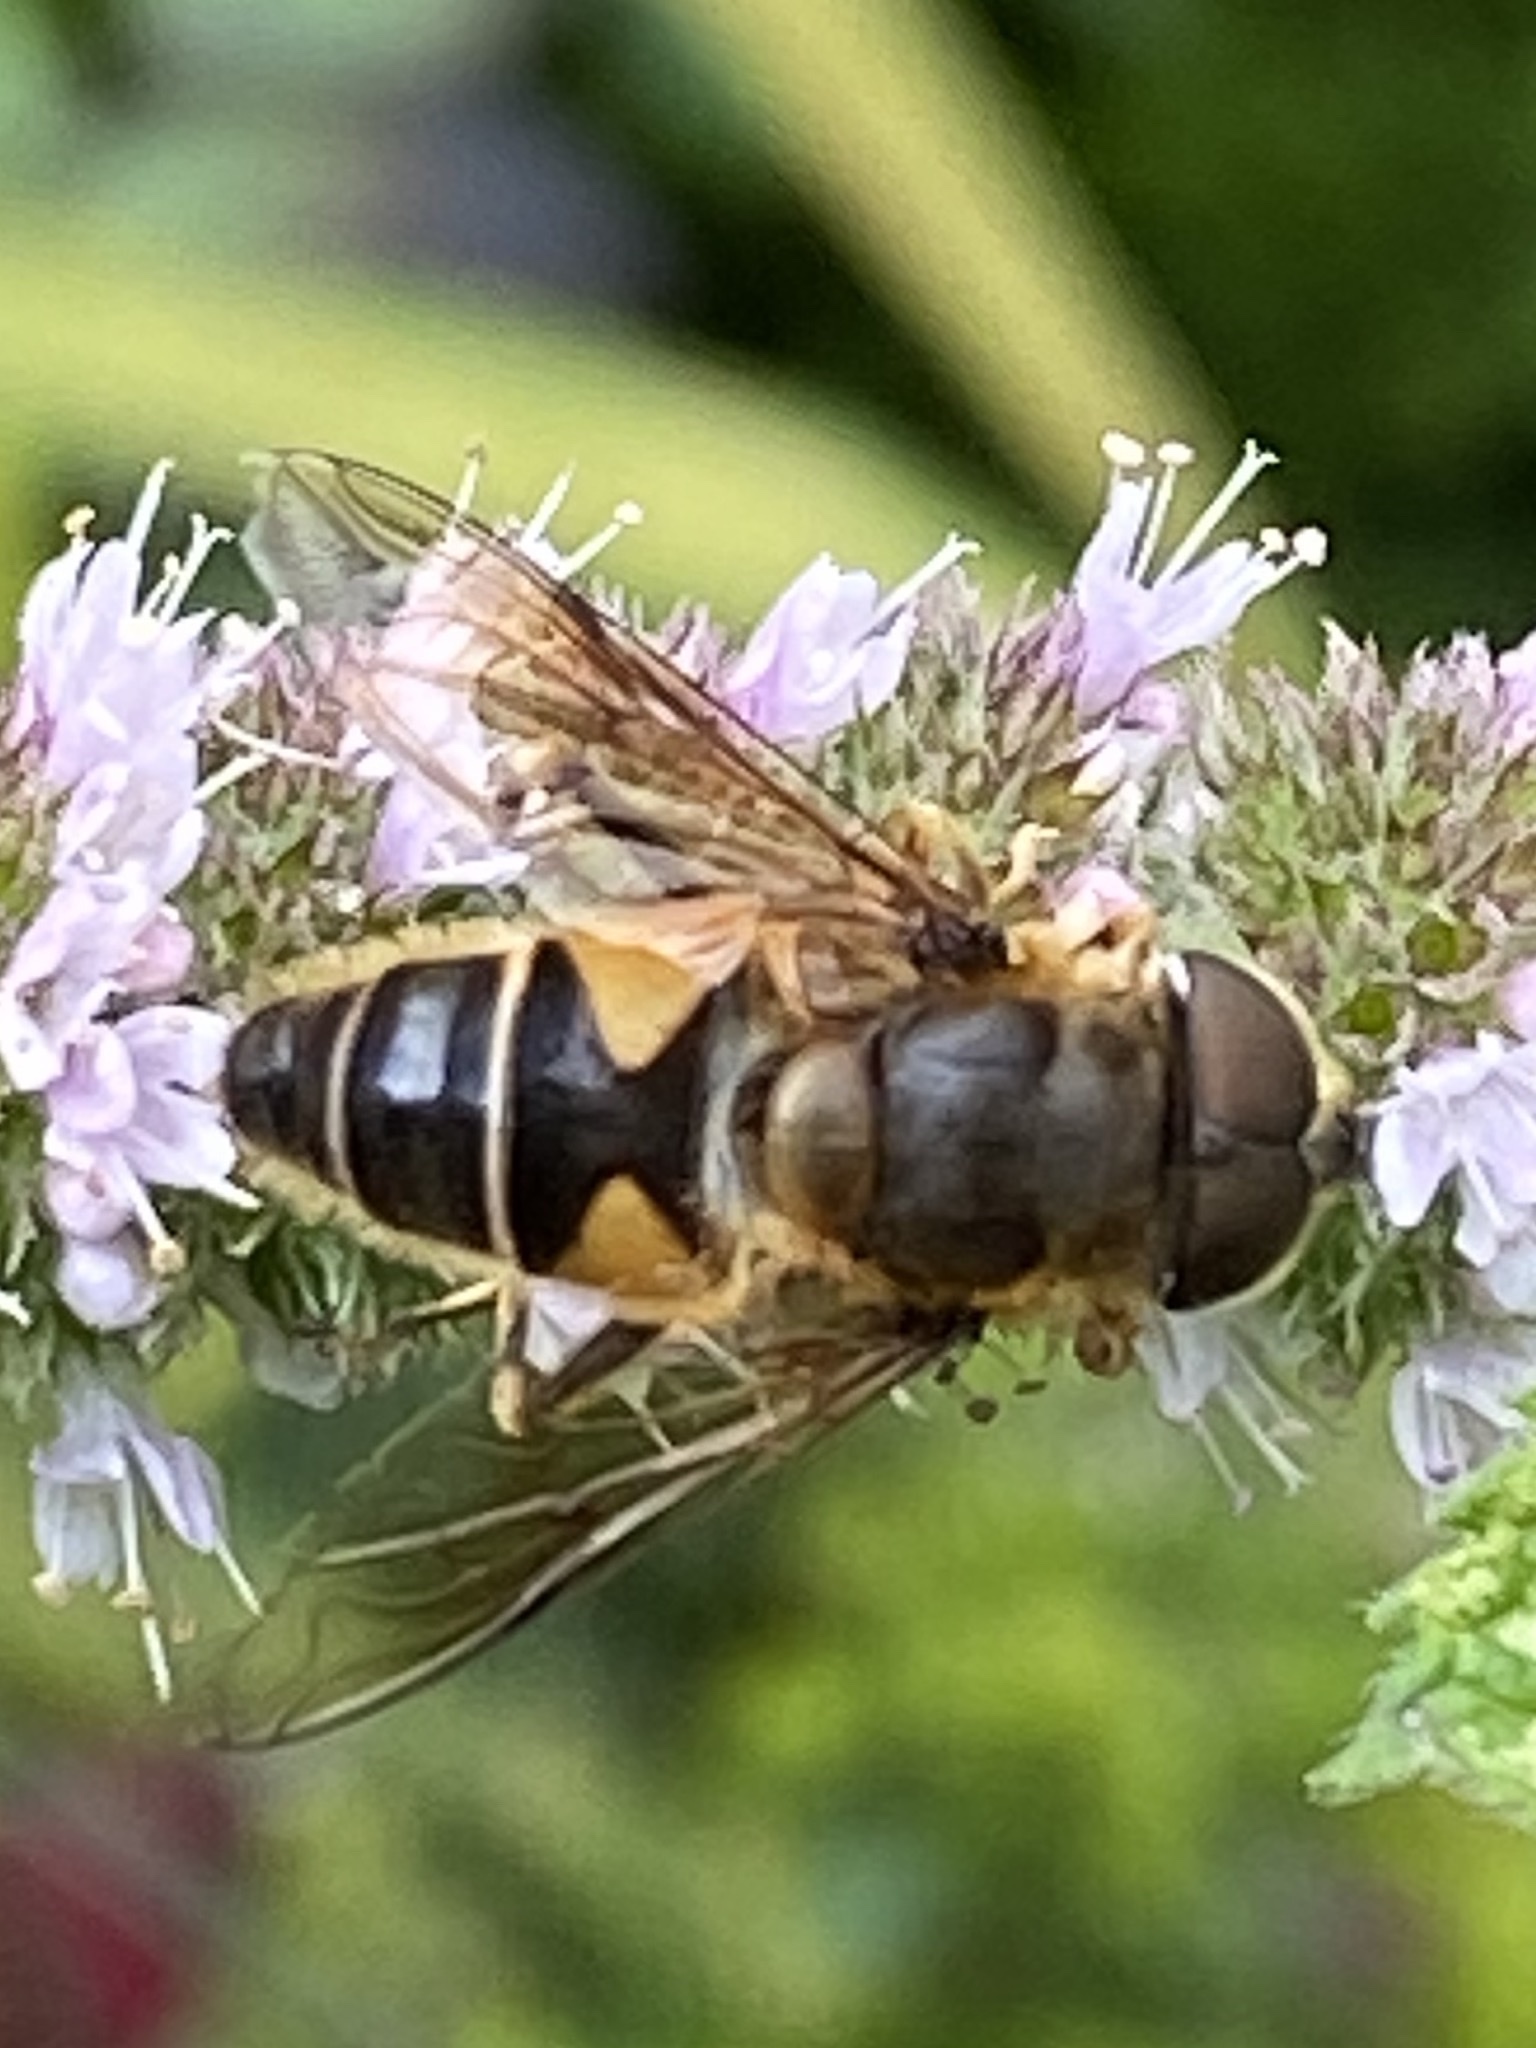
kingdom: Animalia
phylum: Arthropoda
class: Insecta
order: Diptera
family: Syrphidae
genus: Eristalis
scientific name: Eristalis pertinax
